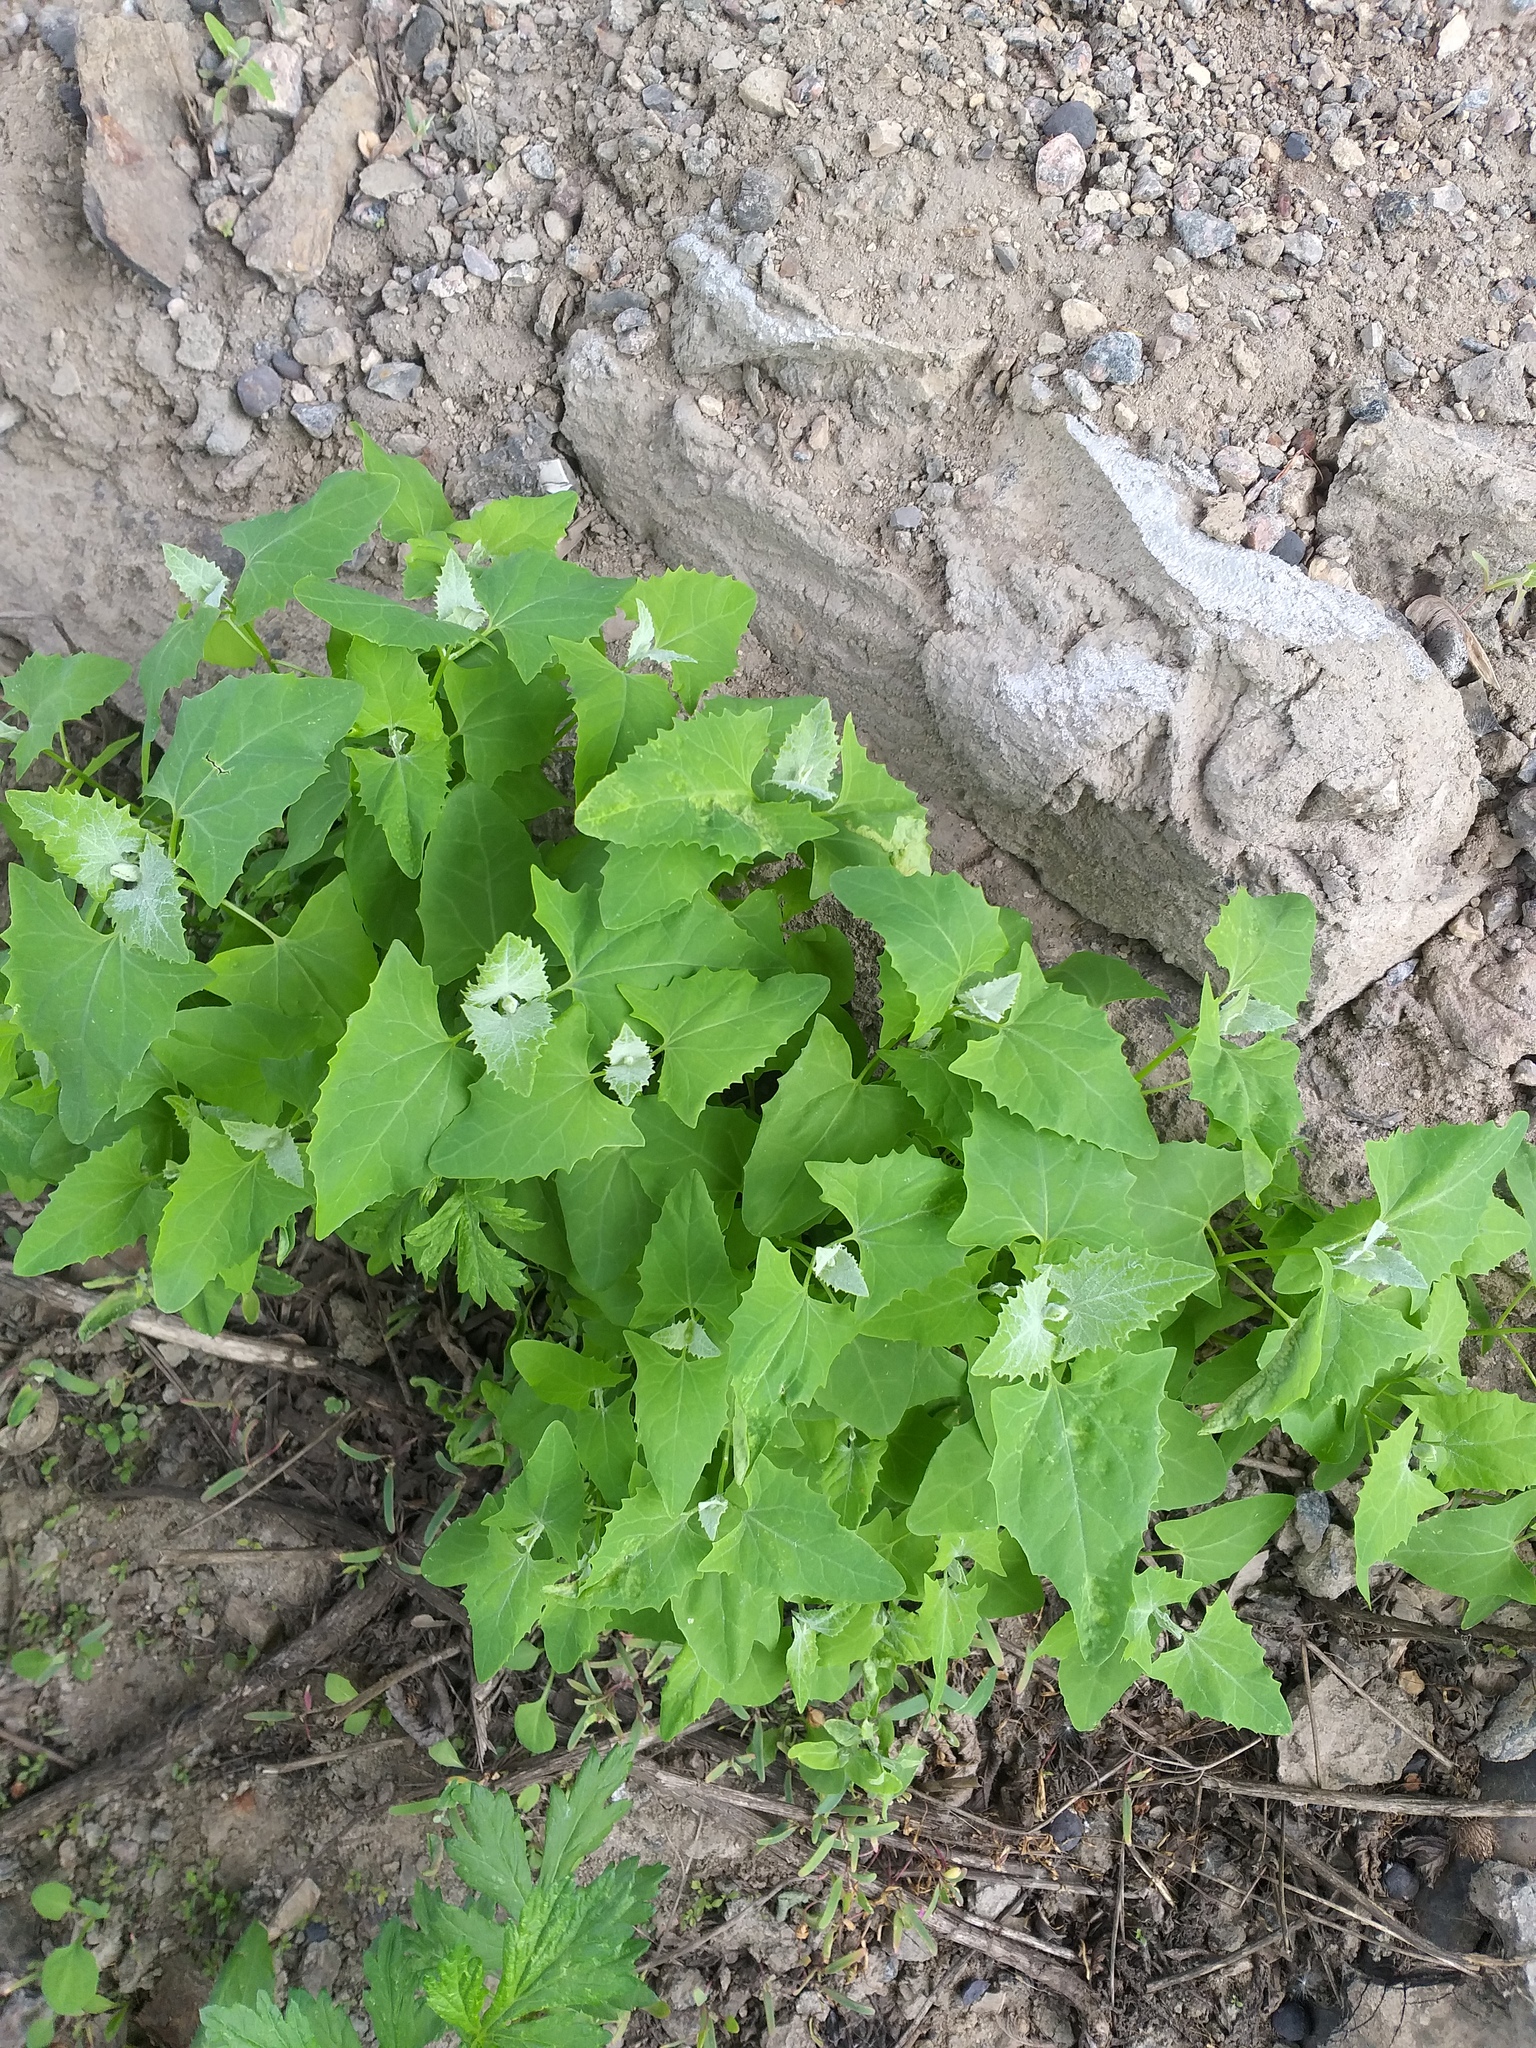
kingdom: Plantae
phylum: Tracheophyta
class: Magnoliopsida
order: Caryophyllales
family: Amaranthaceae
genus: Atriplex
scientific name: Atriplex sagittata
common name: Purple orache
